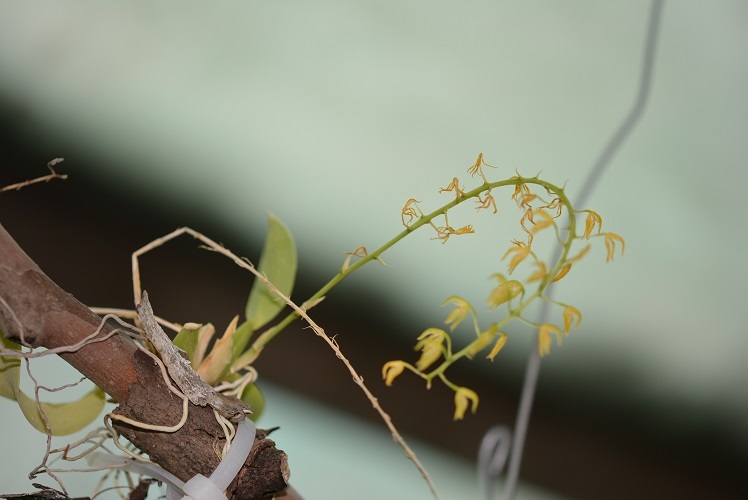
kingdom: Plantae
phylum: Tracheophyta
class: Liliopsida
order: Asparagales
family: Orchidaceae
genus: Notylia
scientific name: Notylia orbicularis
